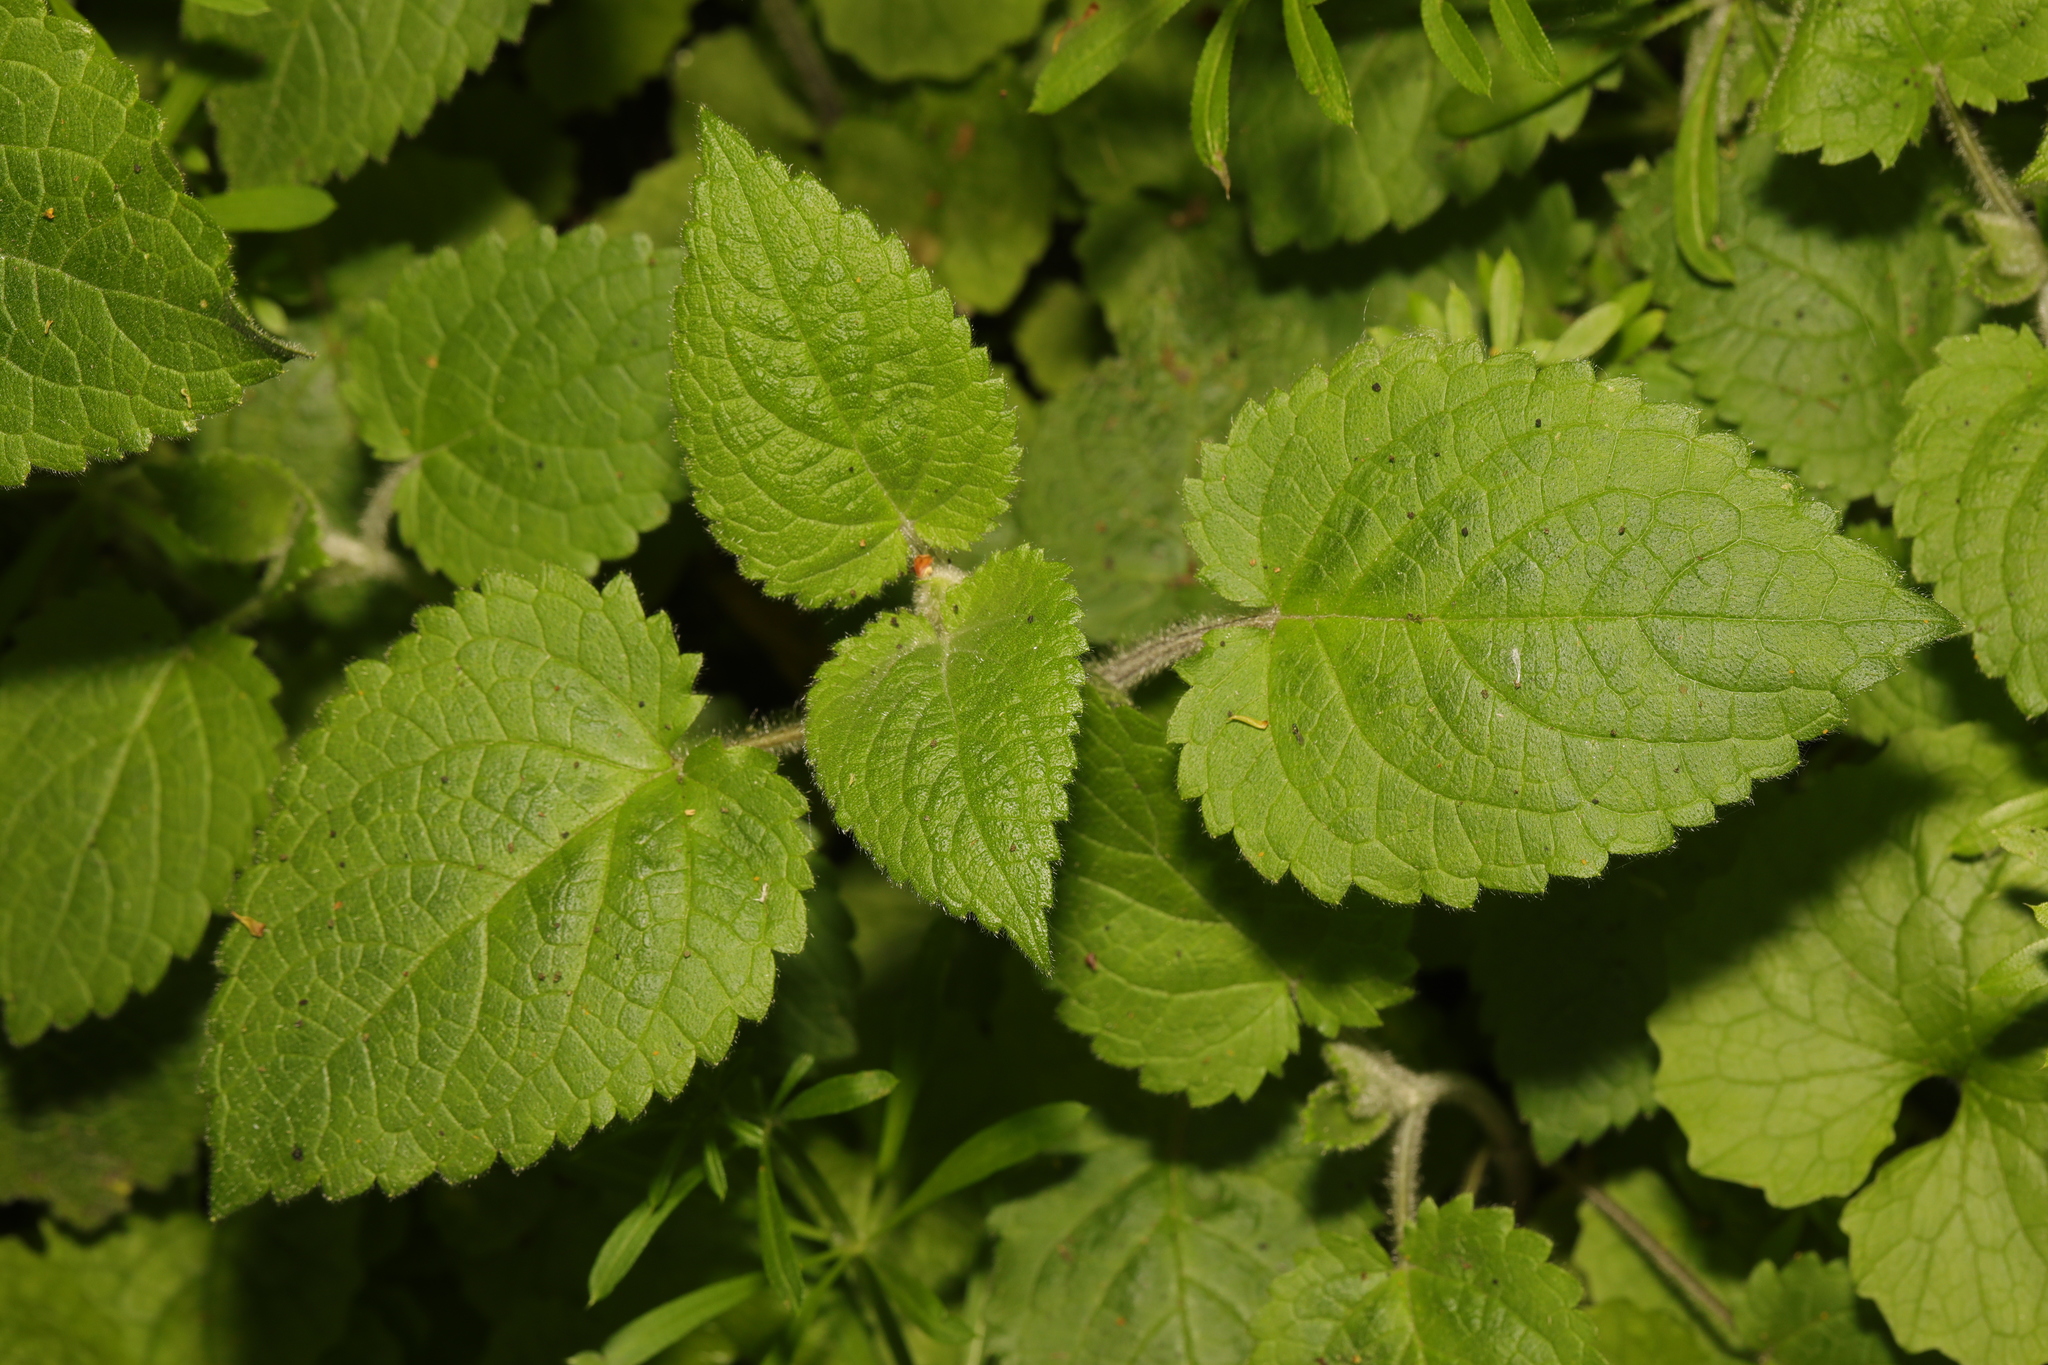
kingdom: Plantae
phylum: Tracheophyta
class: Magnoliopsida
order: Lamiales
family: Lamiaceae
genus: Stachys
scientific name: Stachys sylvatica
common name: Hedge woundwort
